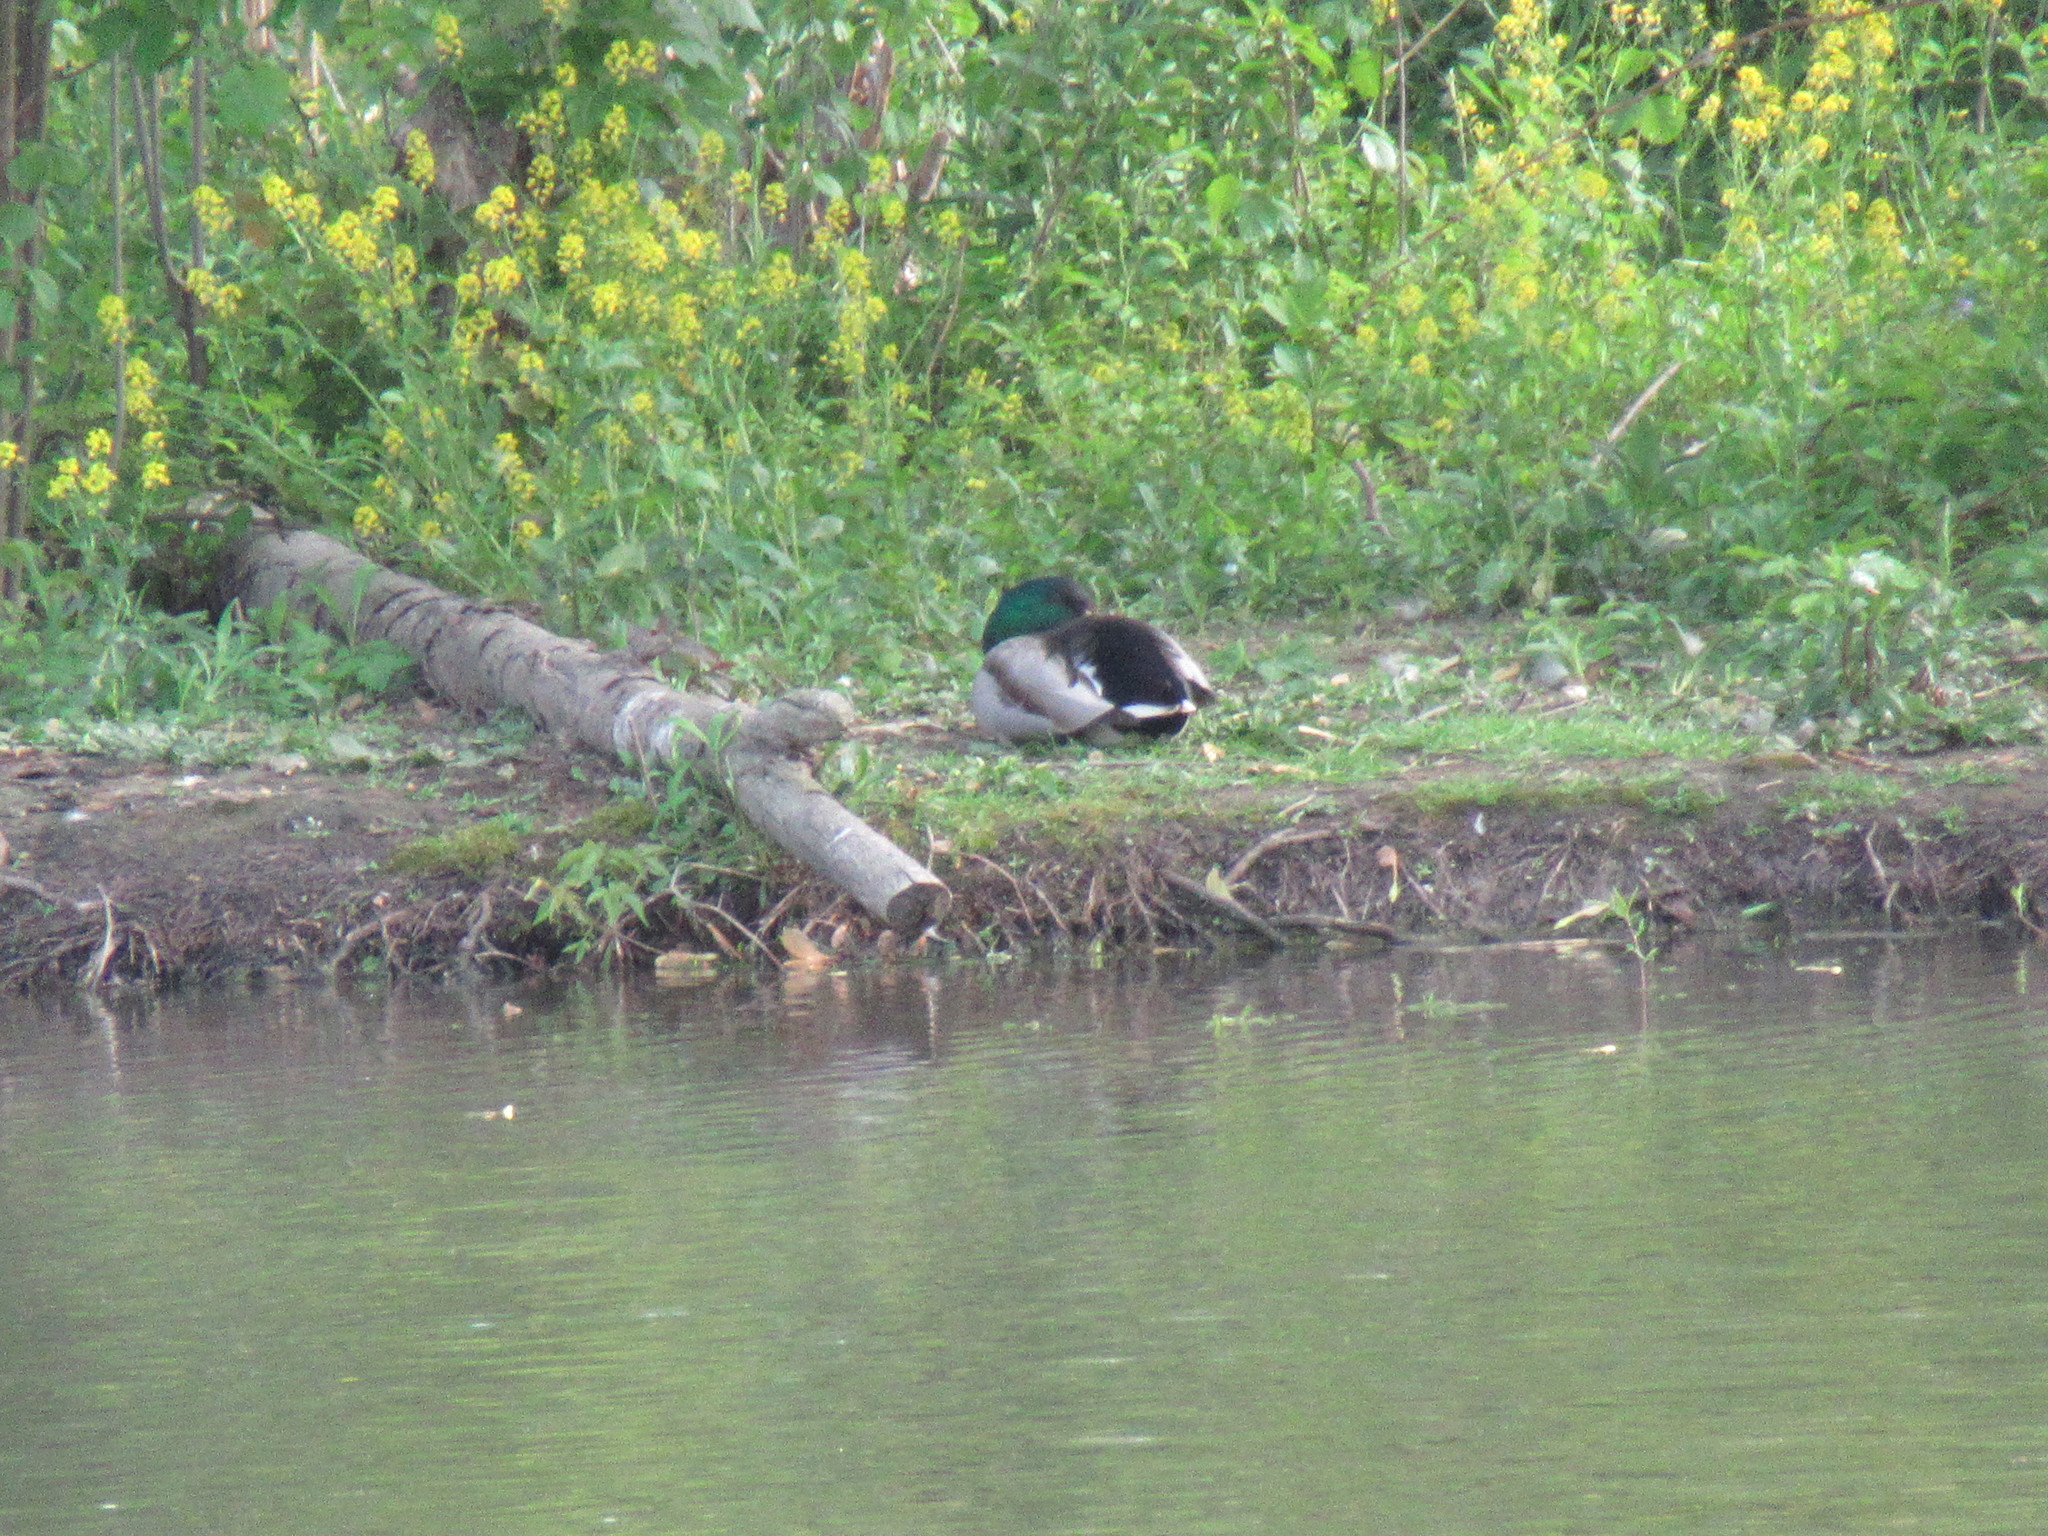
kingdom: Animalia
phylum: Chordata
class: Aves
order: Anseriformes
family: Anatidae
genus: Anas
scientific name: Anas platyrhynchos
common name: Mallard
